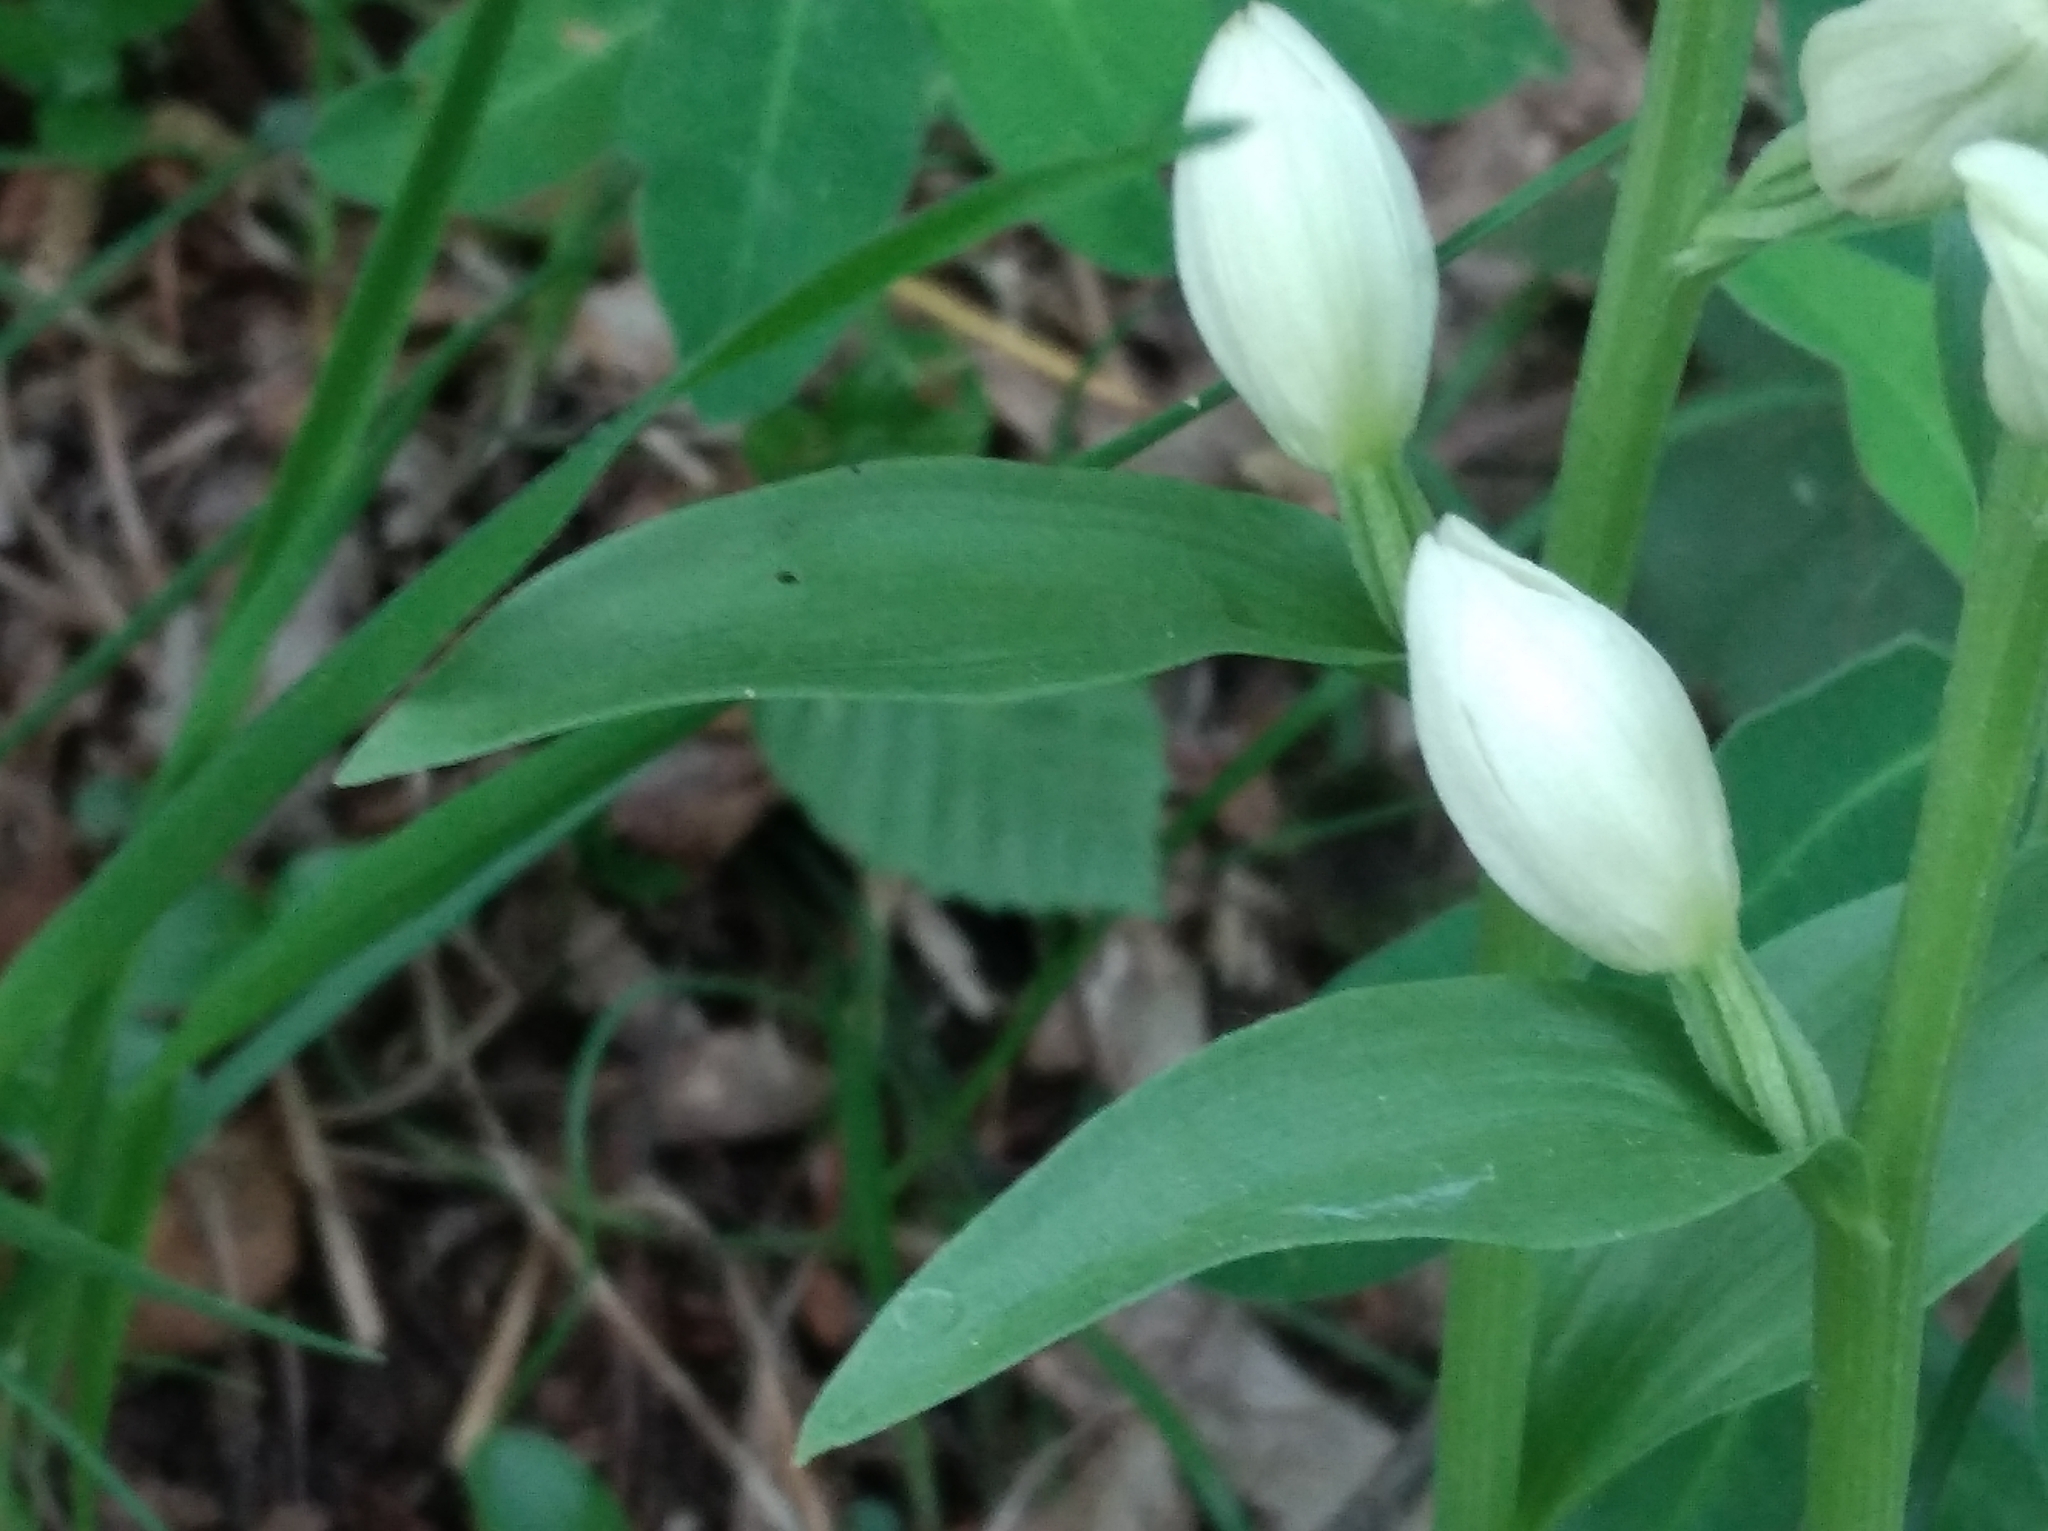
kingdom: Plantae
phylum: Tracheophyta
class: Liliopsida
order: Asparagales
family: Orchidaceae
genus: Cephalanthera
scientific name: Cephalanthera damasonium
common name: White helleborine
